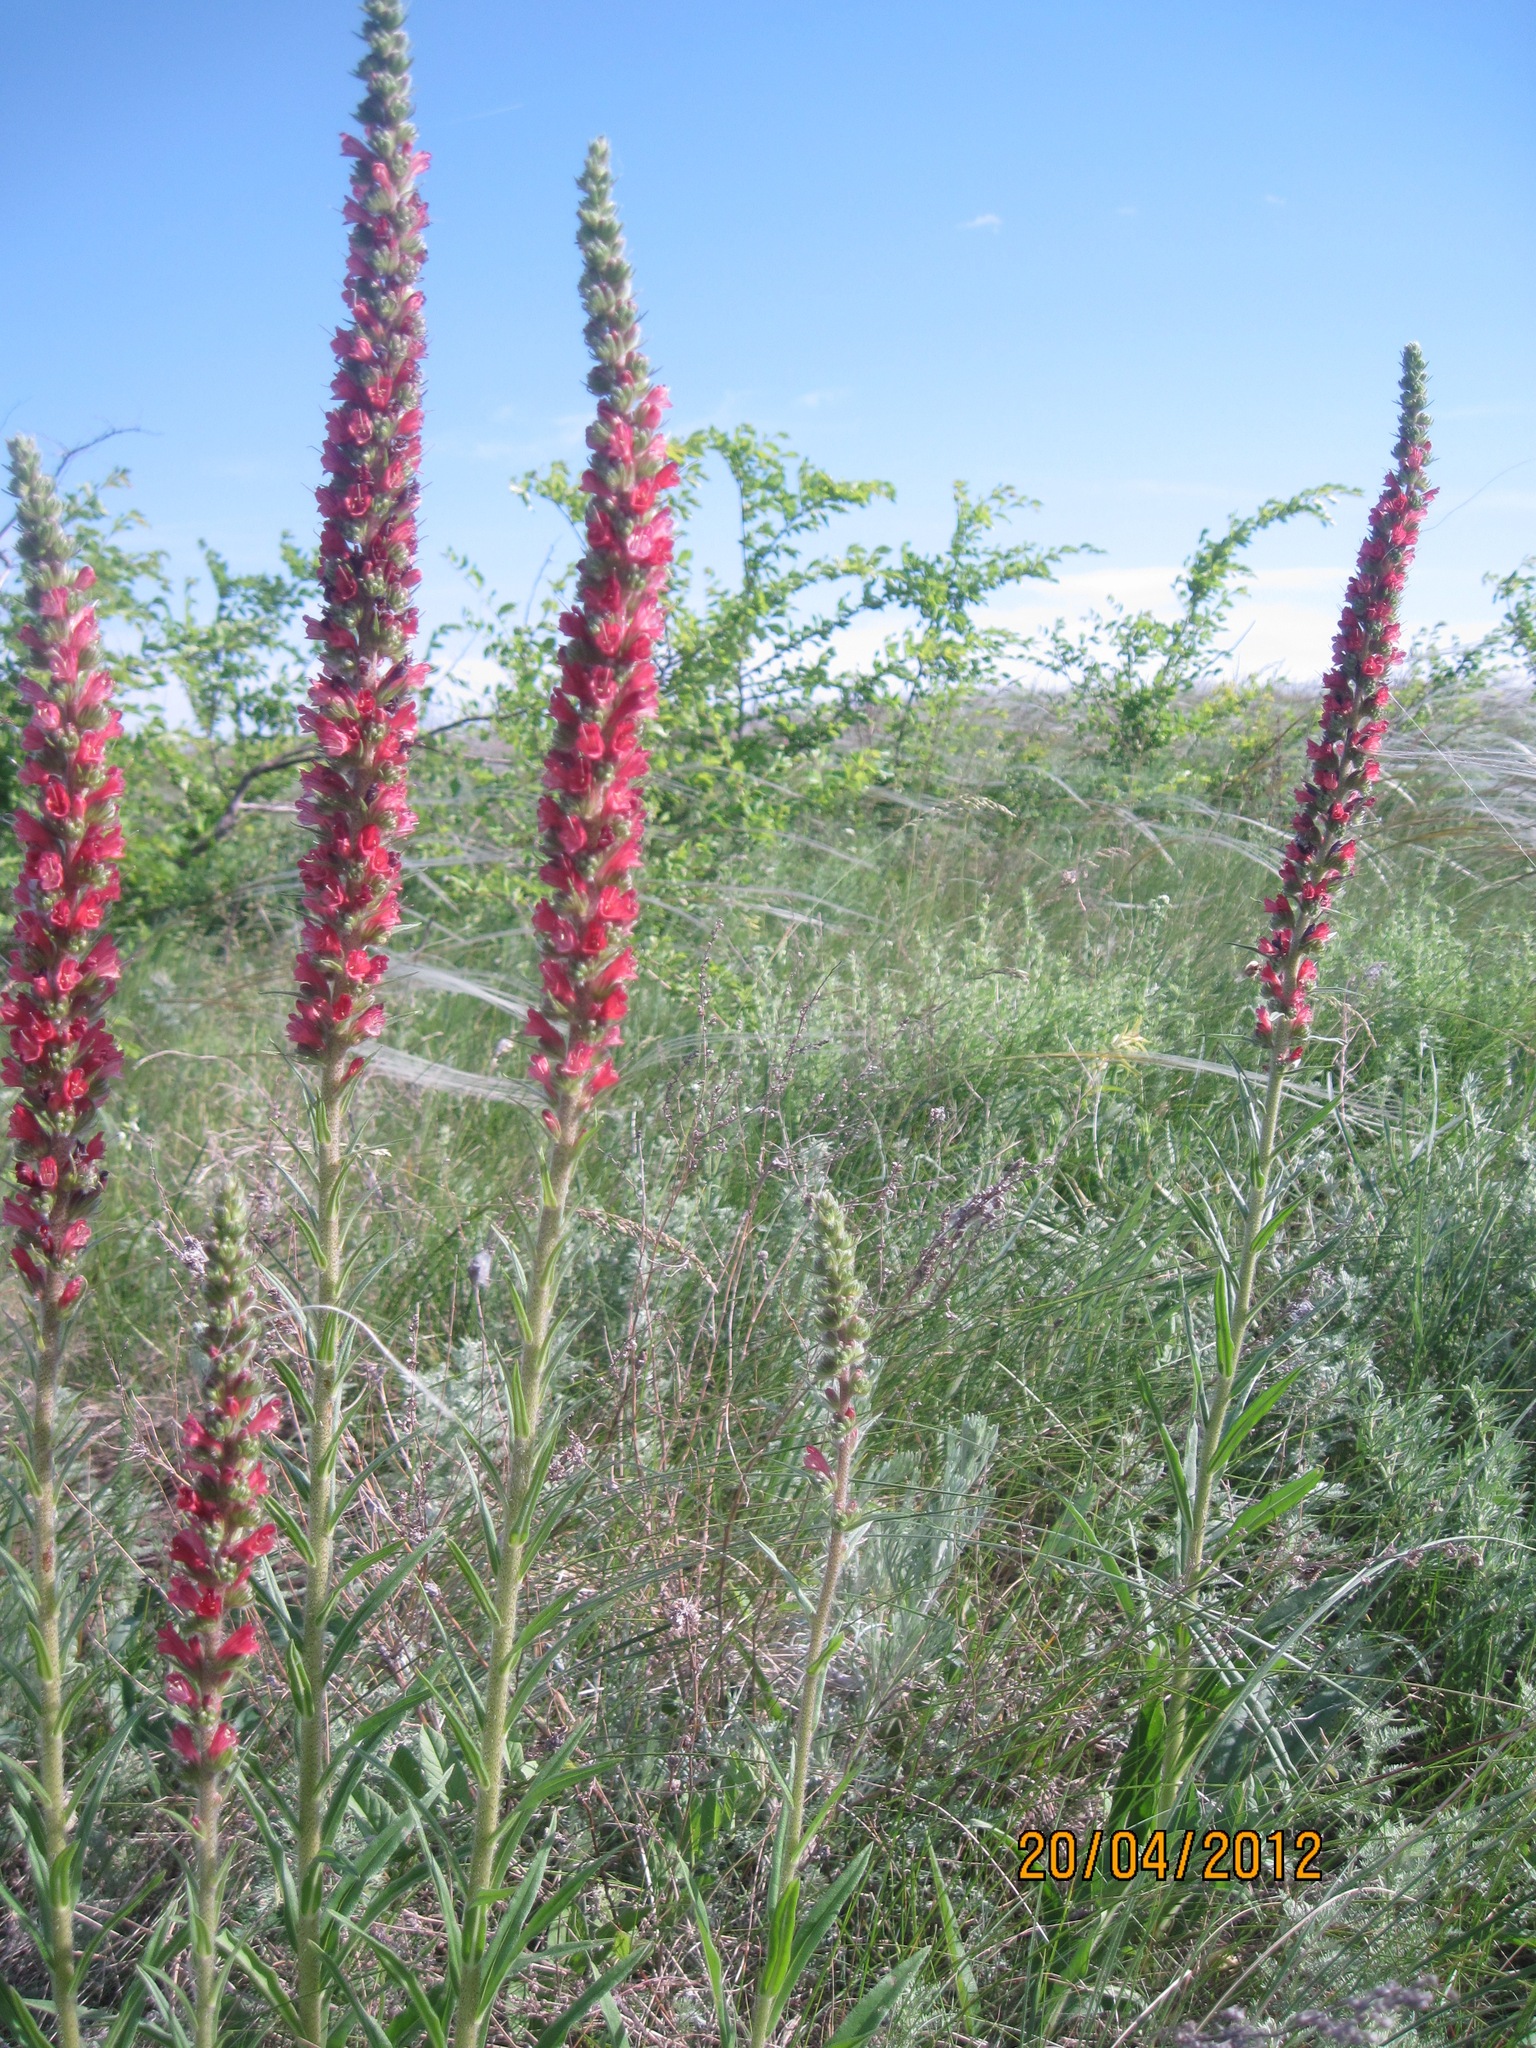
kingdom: Plantae
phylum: Tracheophyta
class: Magnoliopsida
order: Boraginales
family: Boraginaceae
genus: Pontechium
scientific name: Pontechium maculatum
